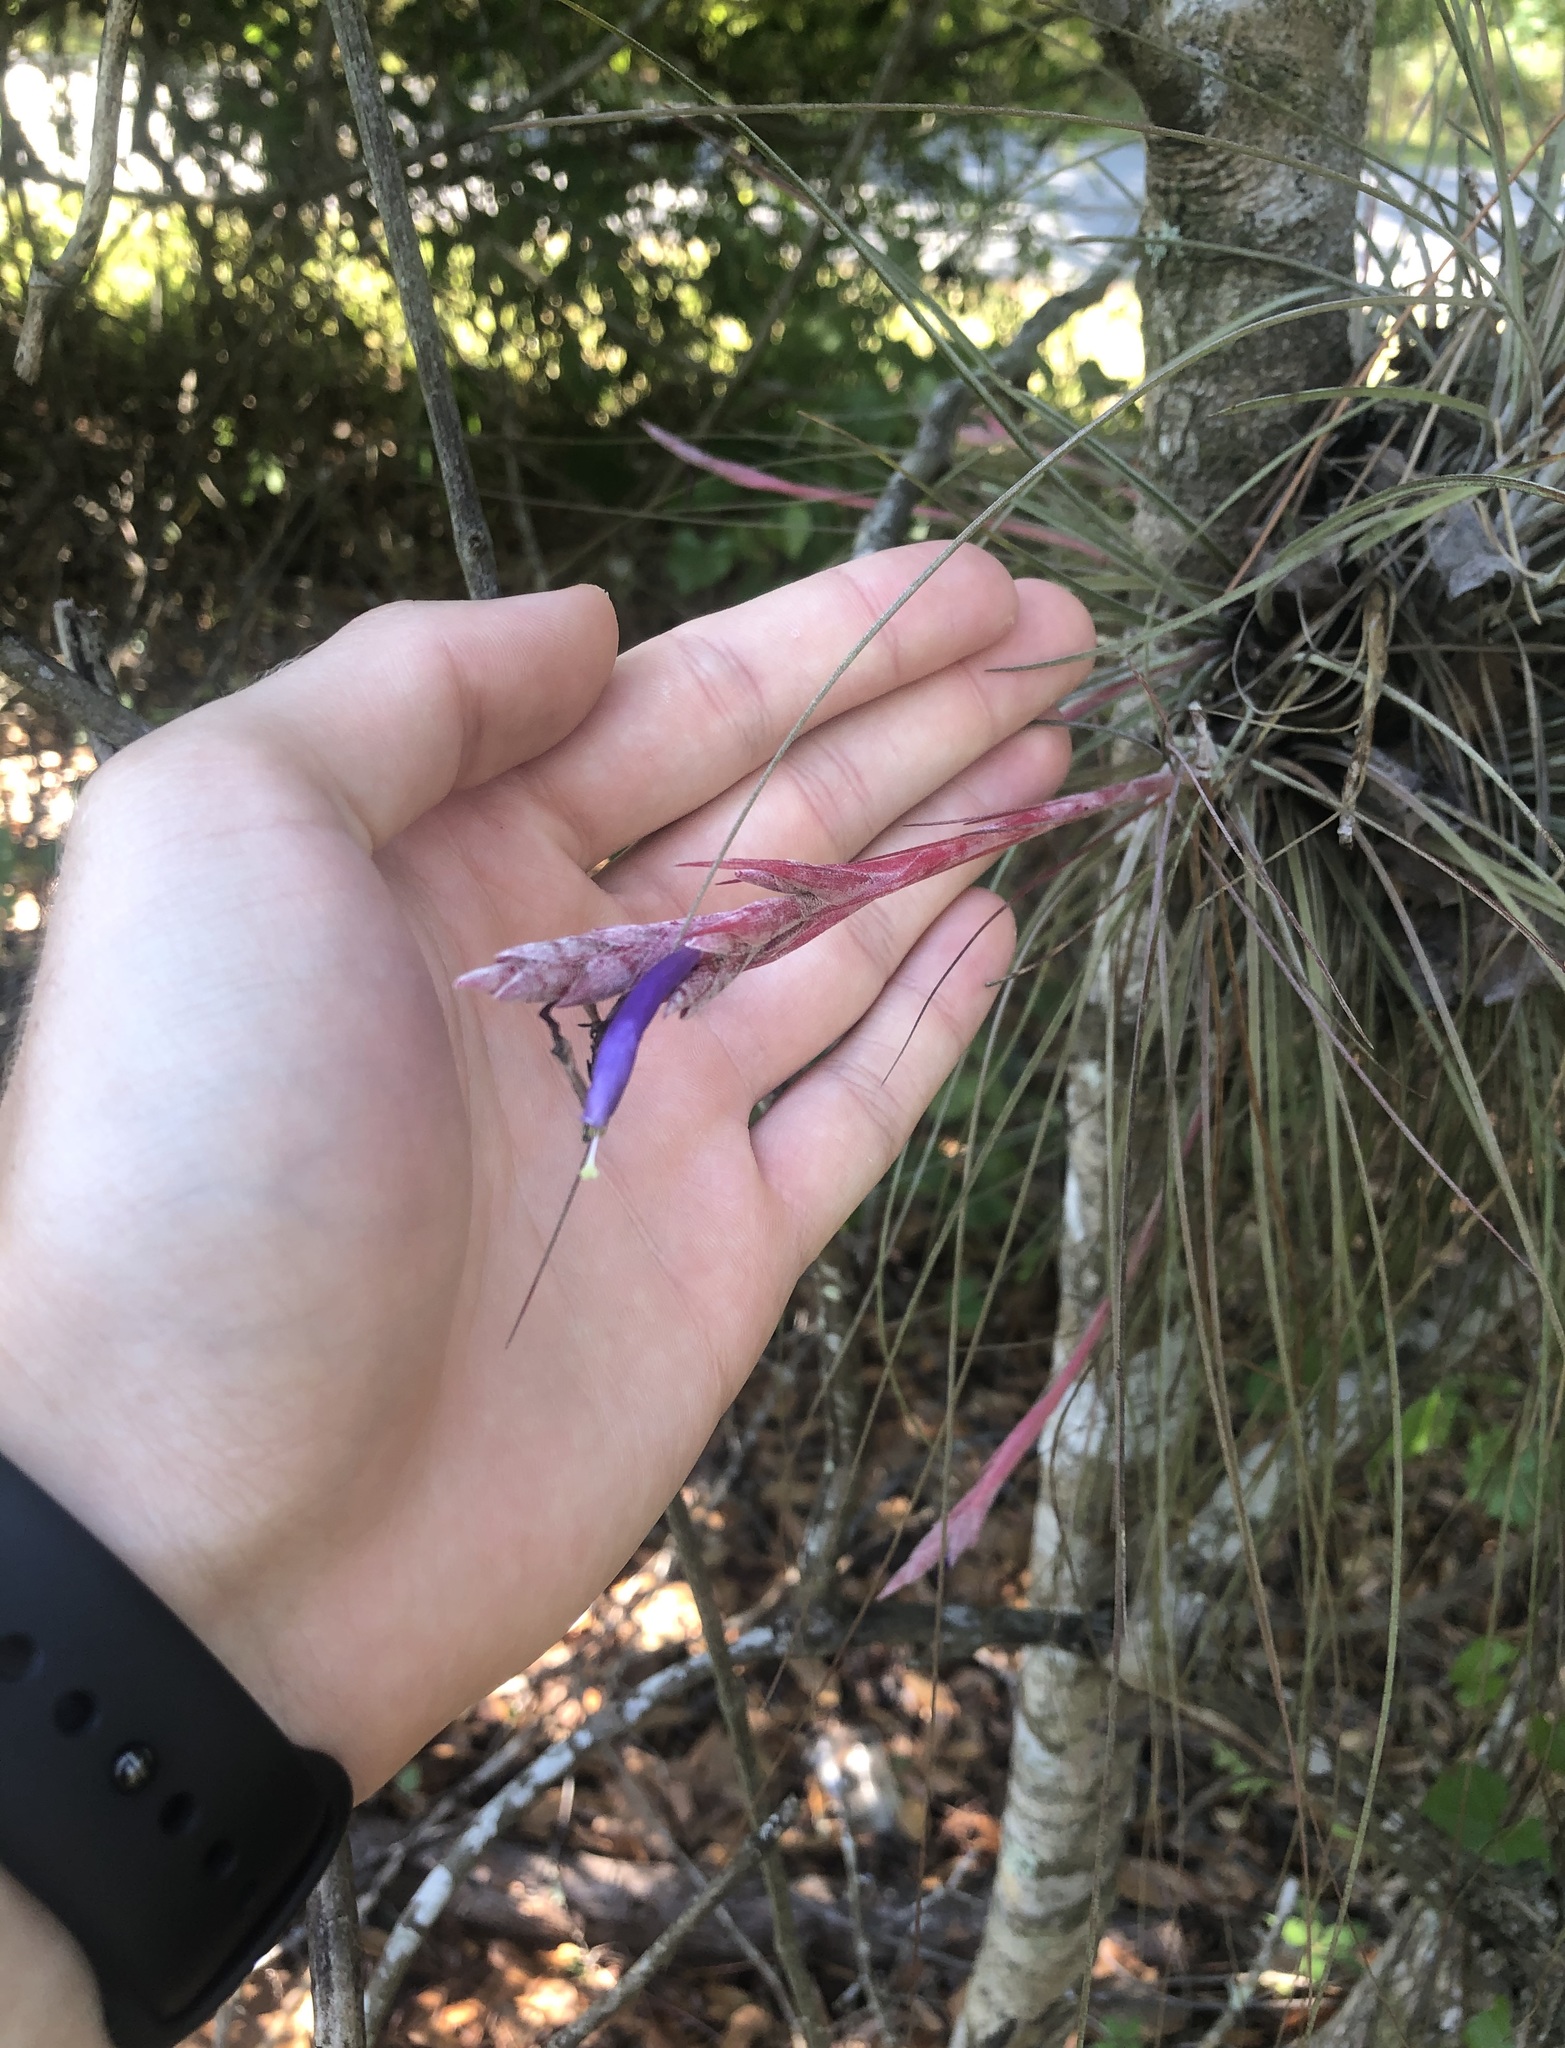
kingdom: Plantae
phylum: Tracheophyta
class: Liliopsida
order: Poales
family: Bromeliaceae
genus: Tillandsia
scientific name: Tillandsia bartramii
